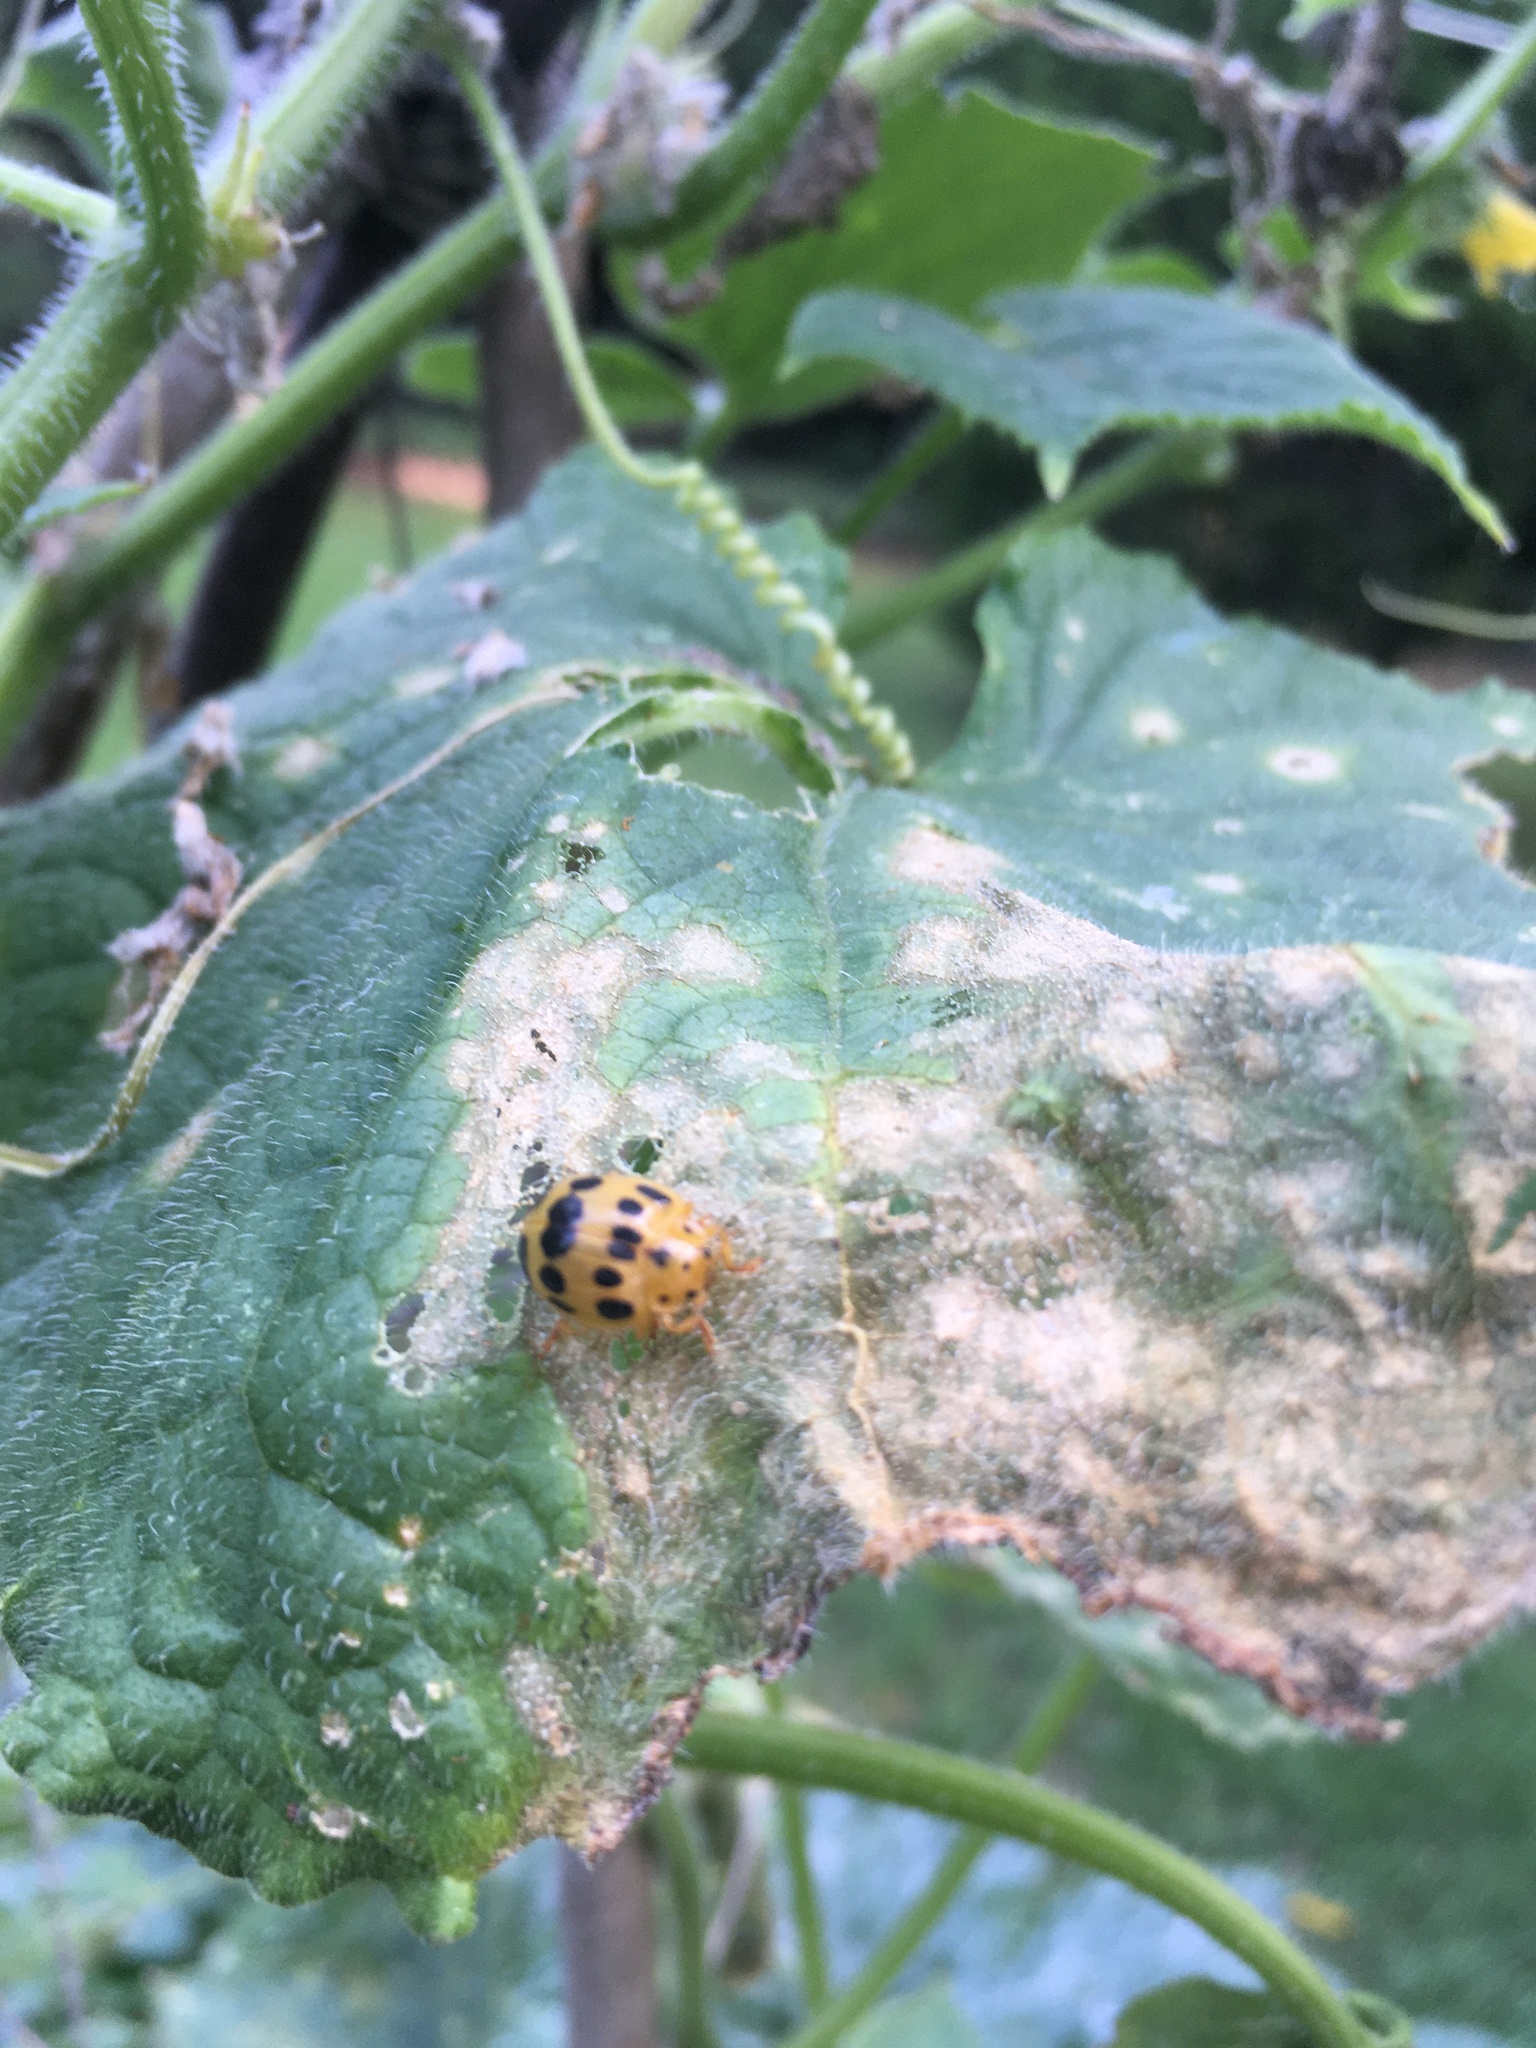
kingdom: Animalia
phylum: Arthropoda
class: Insecta
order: Coleoptera
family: Coccinellidae
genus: Epilachna
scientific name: Epilachna borealis
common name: Squash beetle
